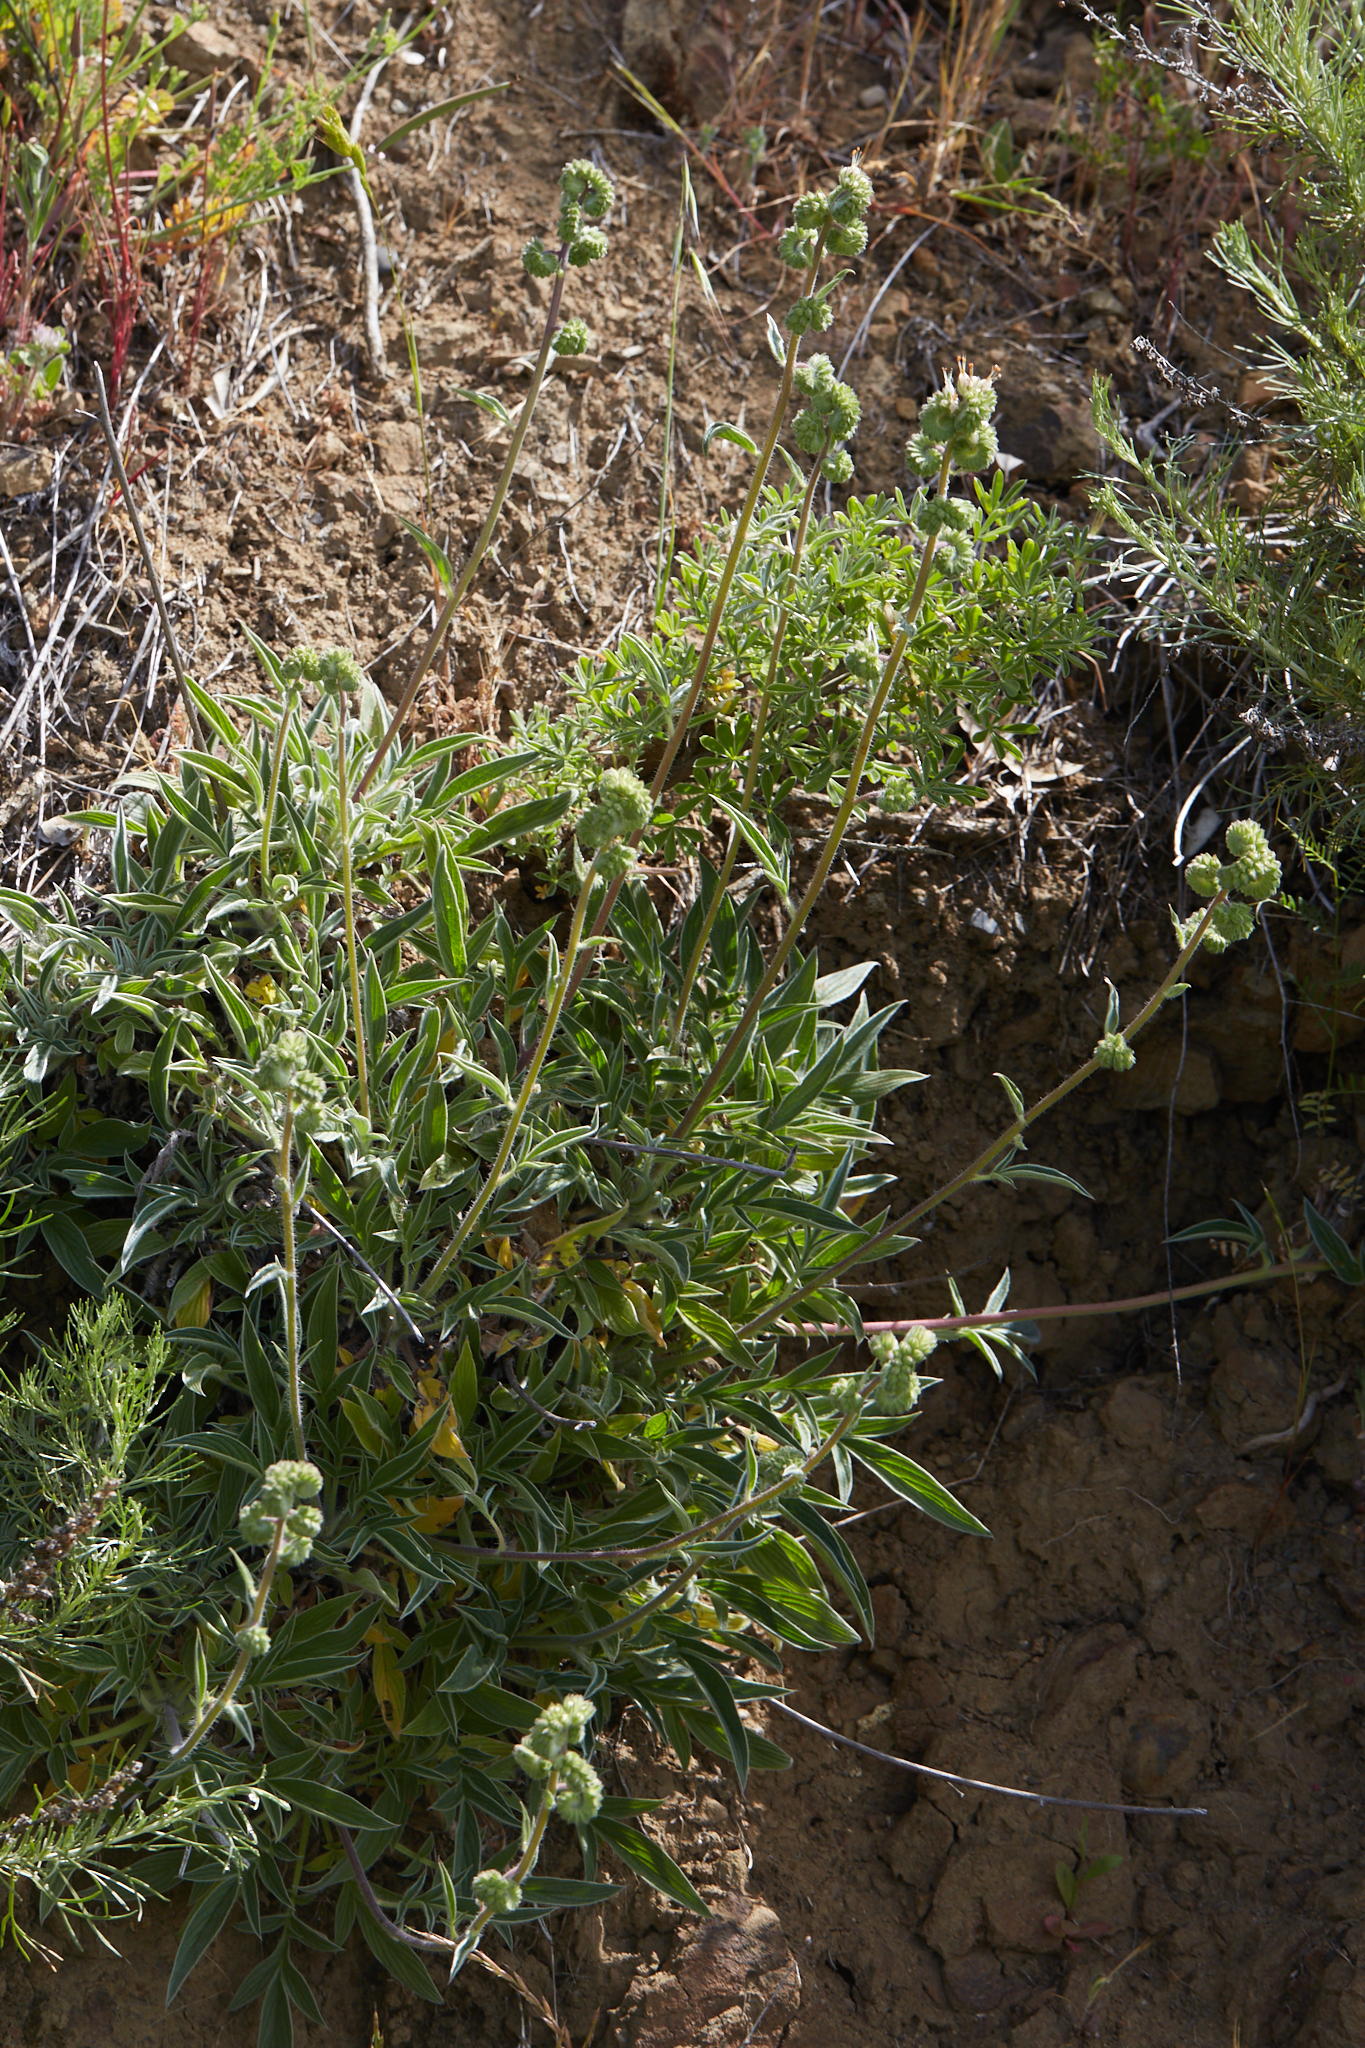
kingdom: Plantae
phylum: Tracheophyta
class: Magnoliopsida
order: Boraginales
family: Hydrophyllaceae
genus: Phacelia
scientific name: Phacelia imbricata
